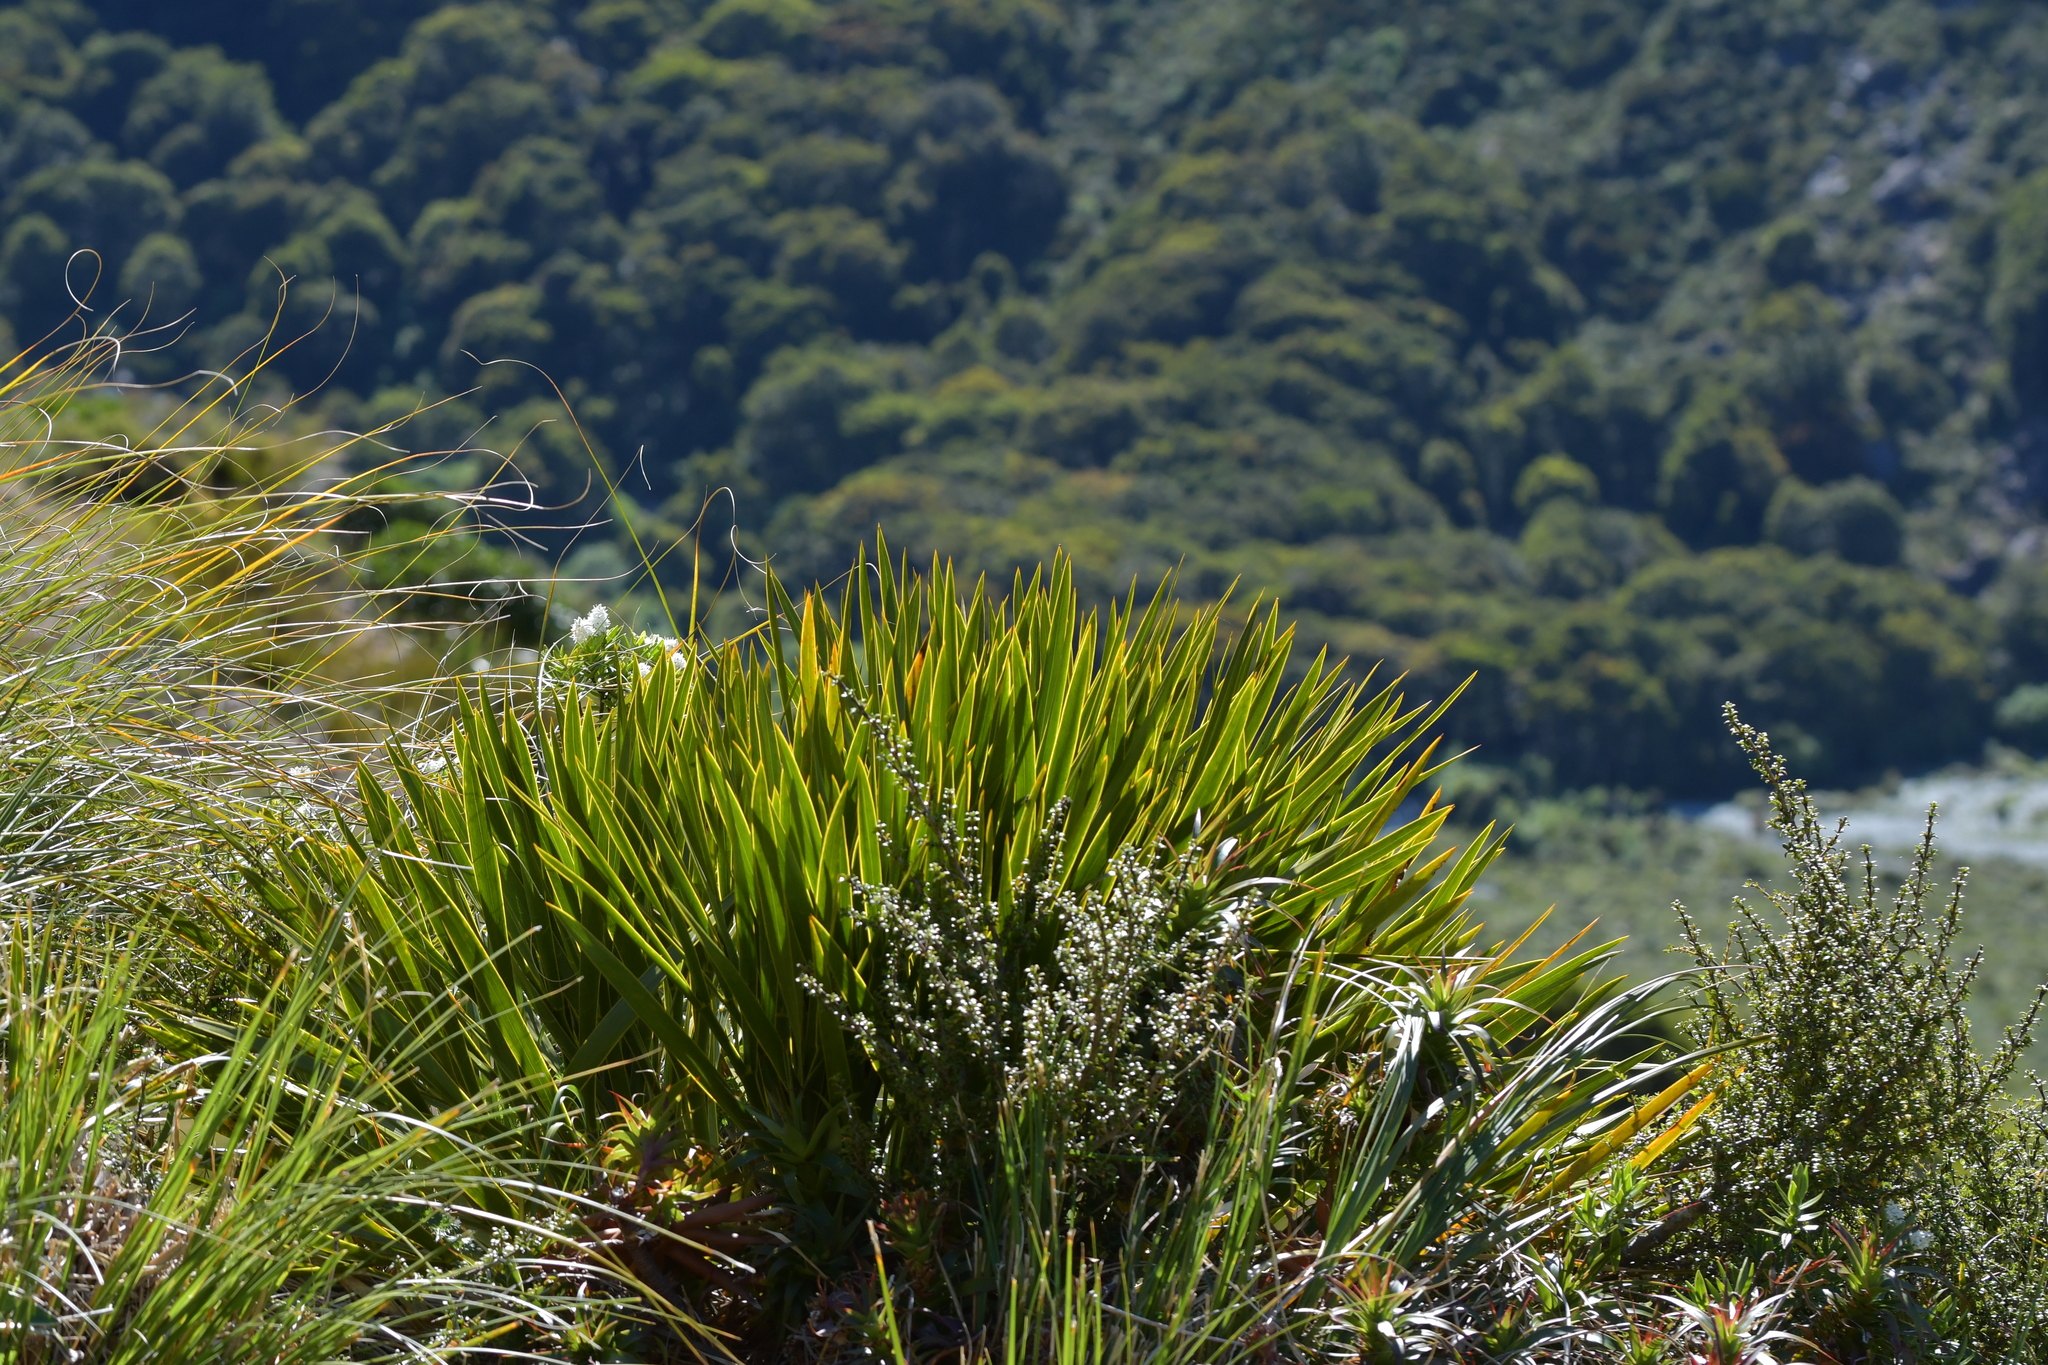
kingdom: Plantae
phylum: Tracheophyta
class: Magnoliopsida
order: Apiales
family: Apiaceae
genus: Aciphylla
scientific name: Aciphylla horrida
